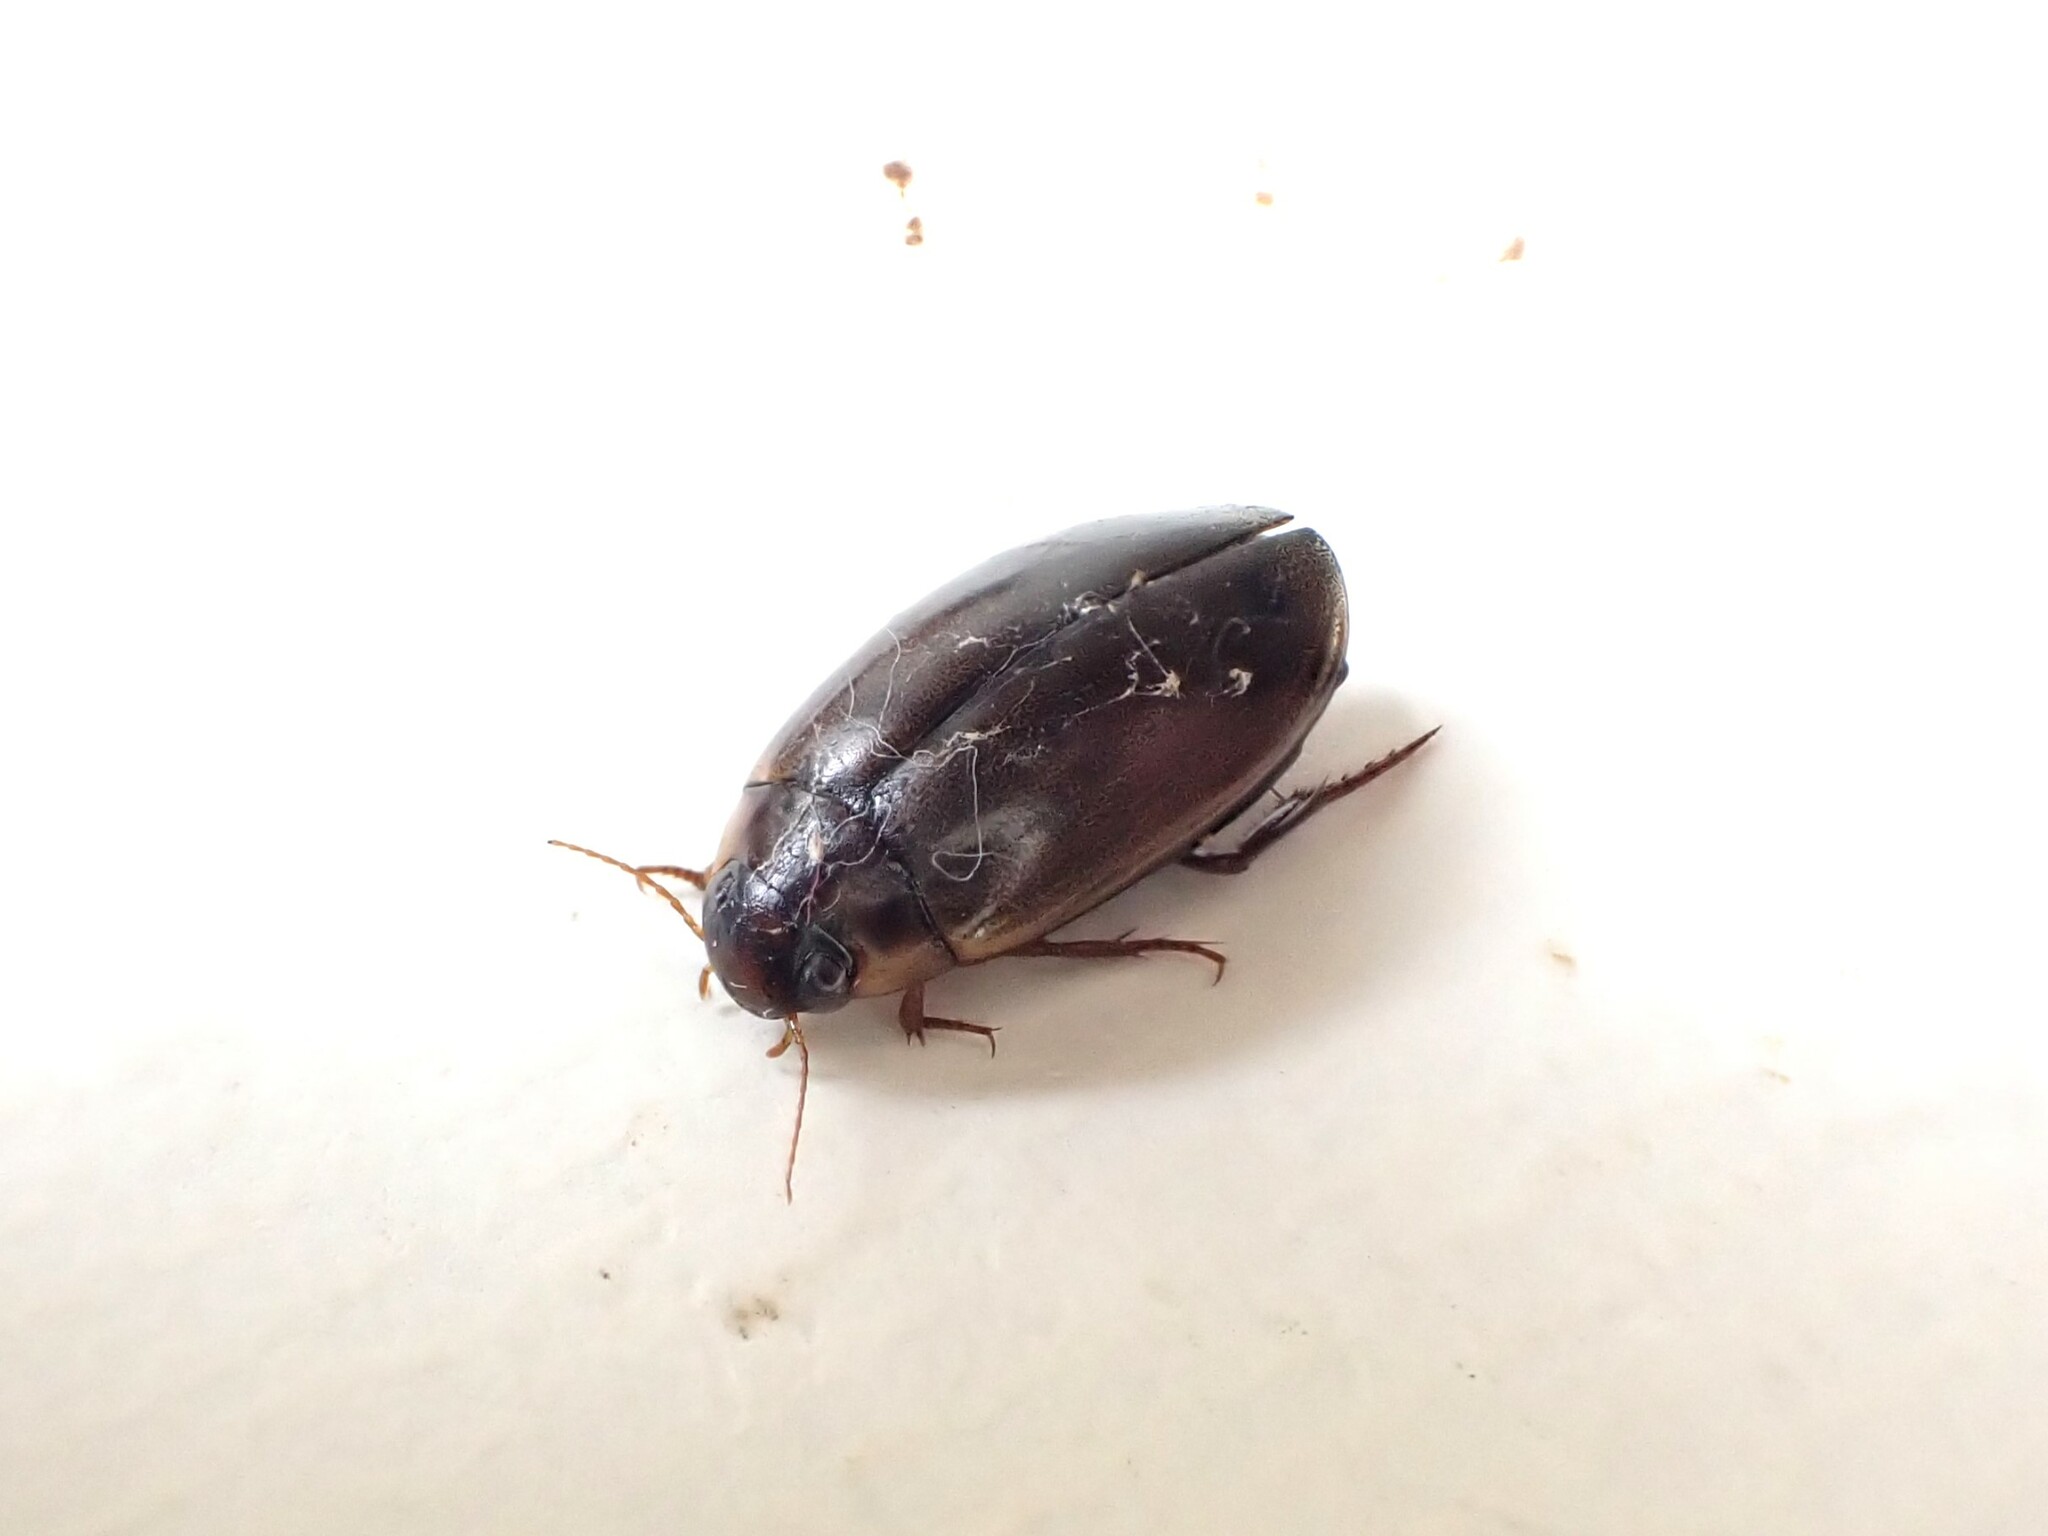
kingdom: Animalia
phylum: Arthropoda
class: Insecta
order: Coleoptera
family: Dytiscidae
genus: Rhantus
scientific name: Rhantus suturalis
